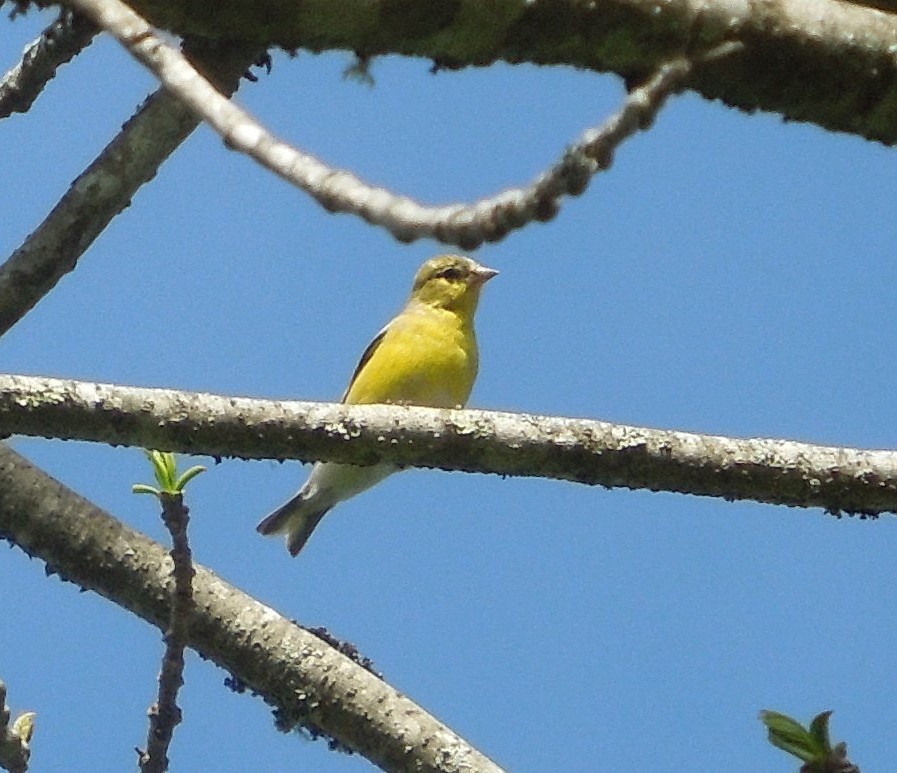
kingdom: Animalia
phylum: Chordata
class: Aves
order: Passeriformes
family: Fringillidae
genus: Spinus
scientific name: Spinus tristis
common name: American goldfinch
